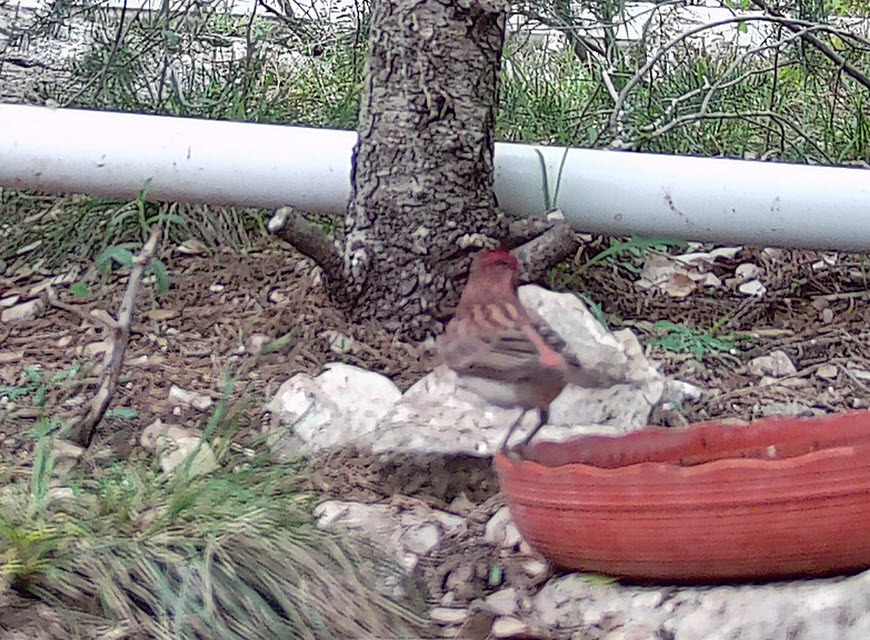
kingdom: Animalia
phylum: Chordata
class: Aves
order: Passeriformes
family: Fringillidae
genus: Haemorhous
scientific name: Haemorhous cassinii
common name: Cassin's finch
